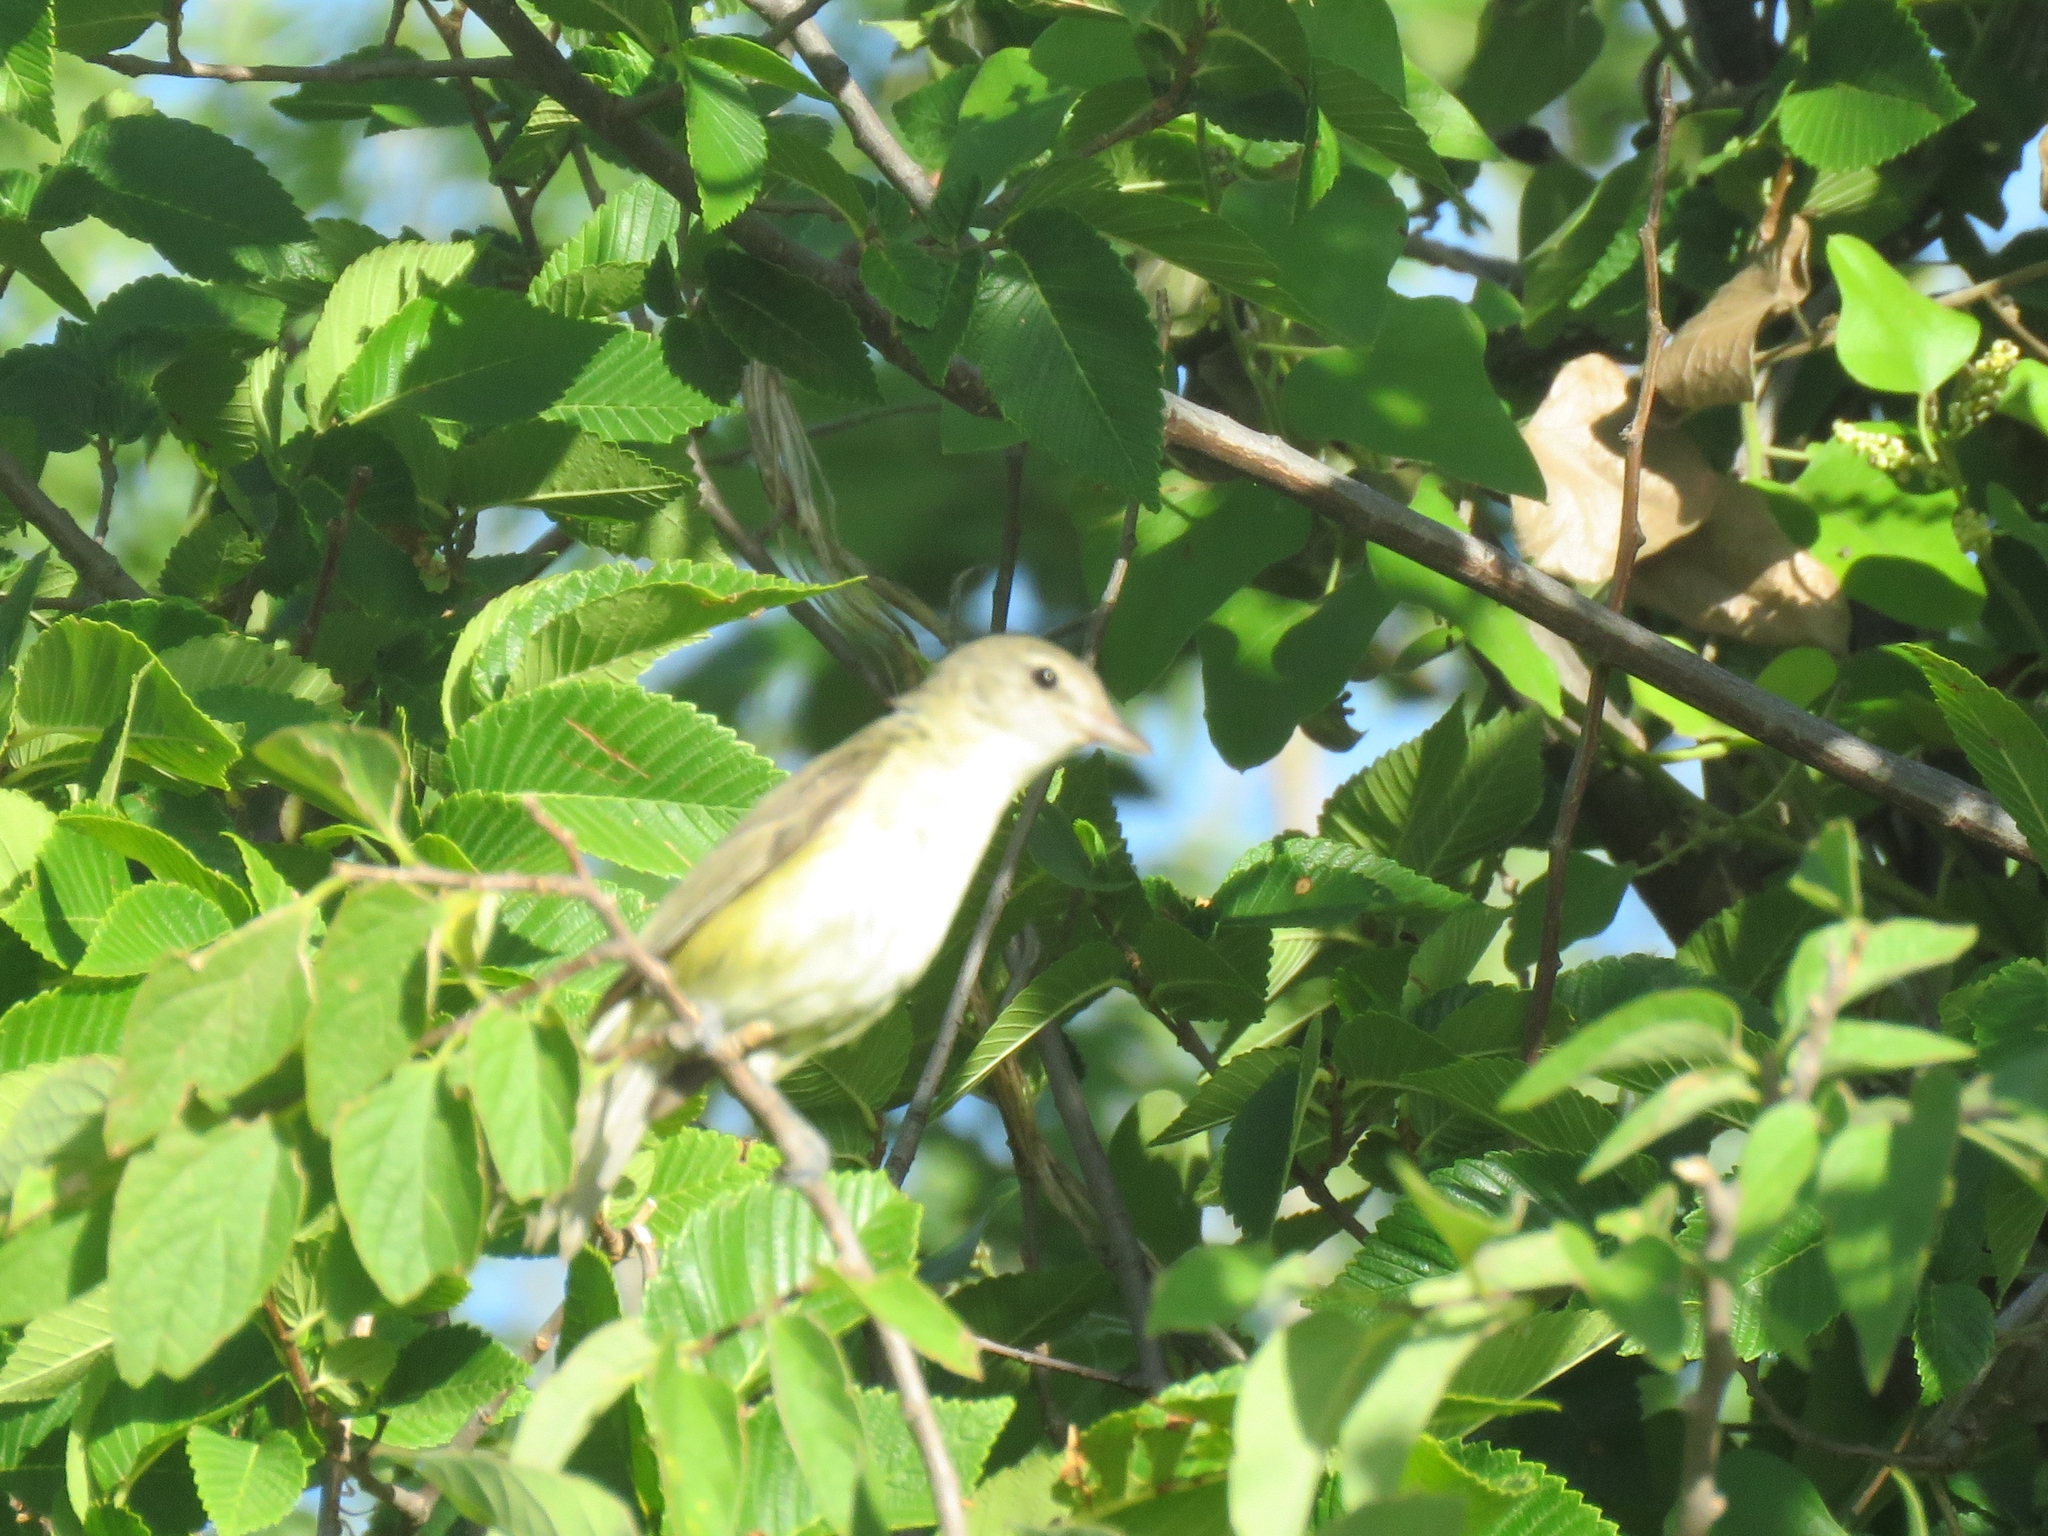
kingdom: Animalia
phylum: Chordata
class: Aves
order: Passeriformes
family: Vireonidae
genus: Vireo
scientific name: Vireo bellii
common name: Bell's vireo
